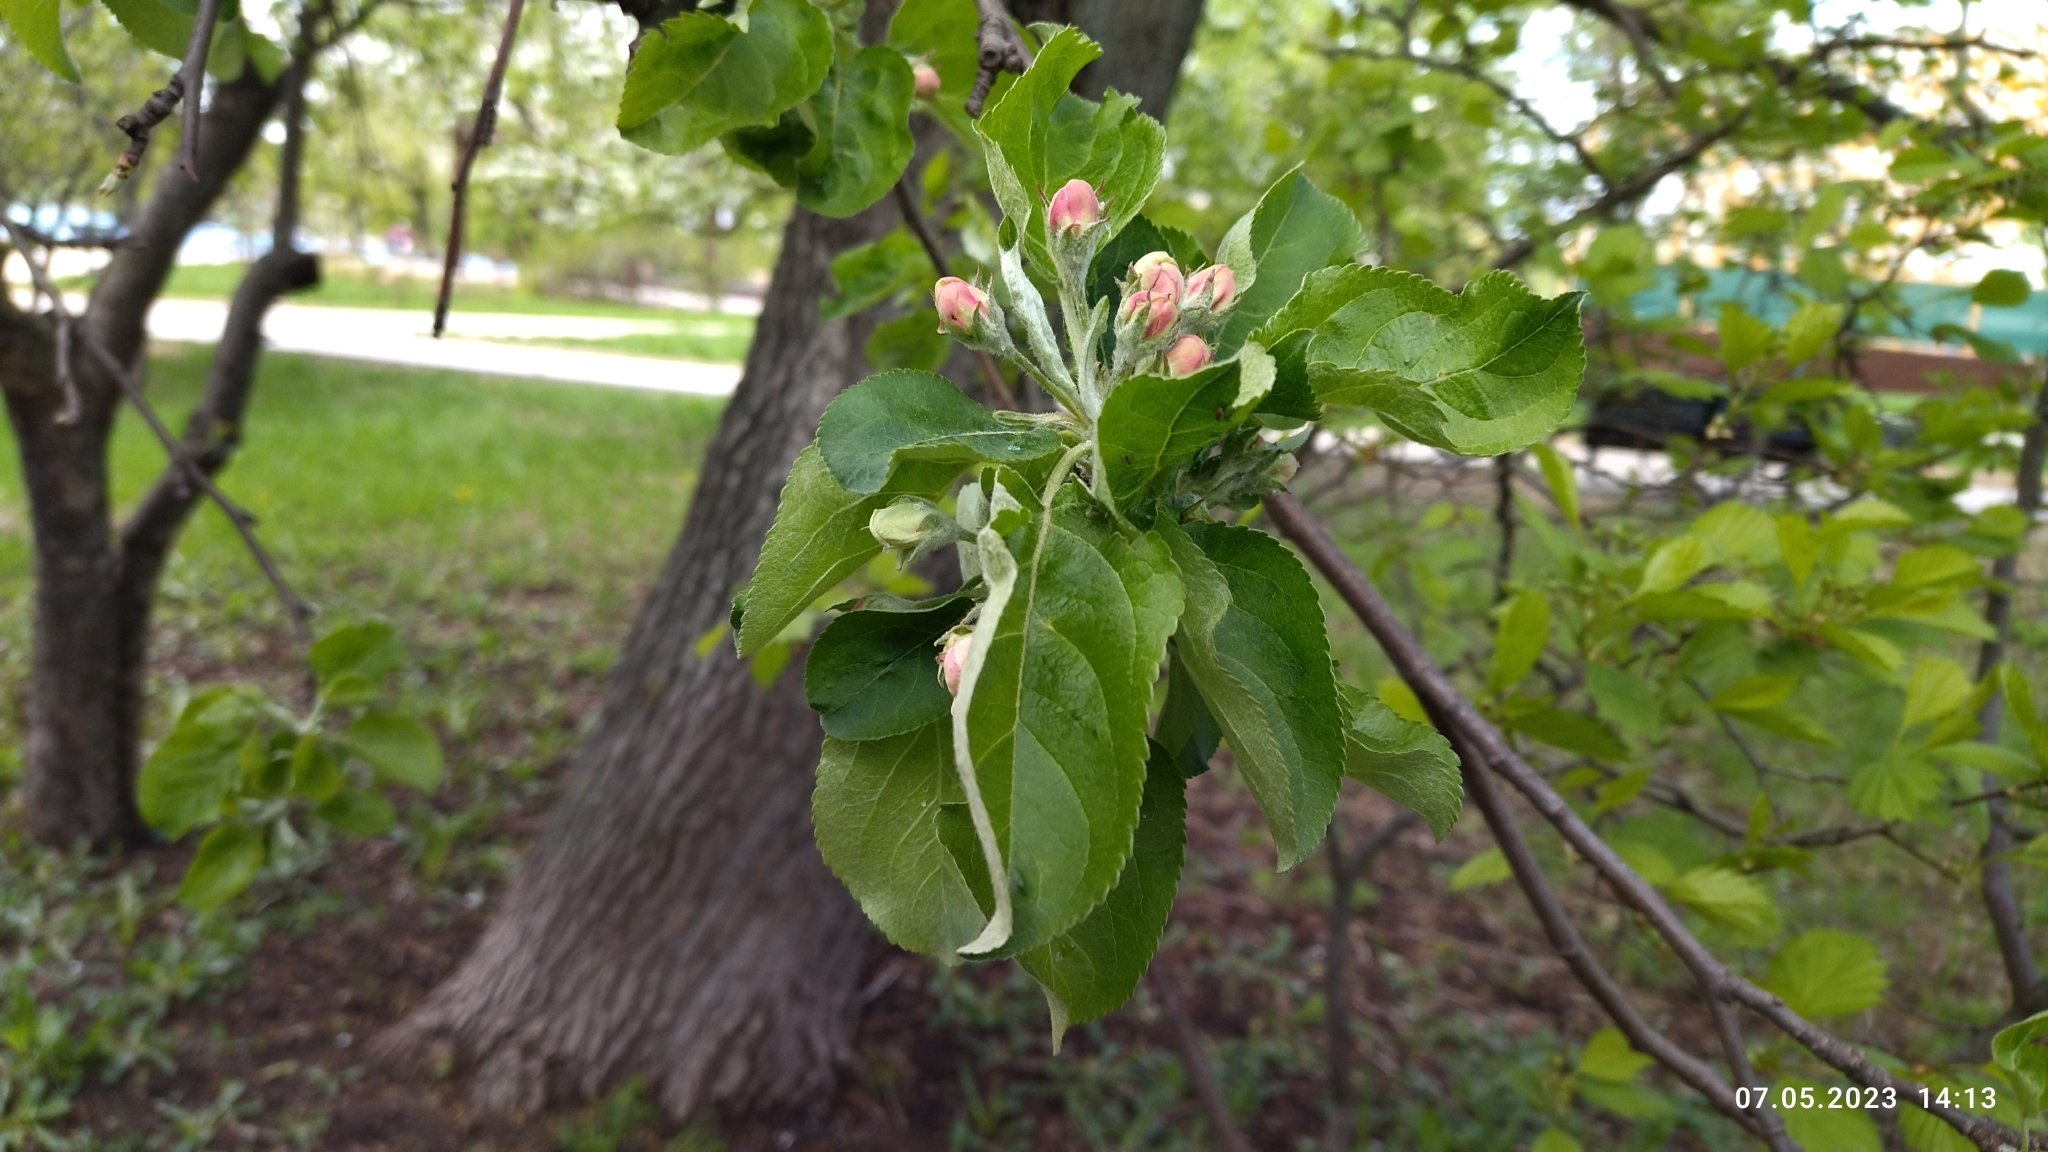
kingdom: Plantae
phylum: Tracheophyta
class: Magnoliopsida
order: Rosales
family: Rosaceae
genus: Malus
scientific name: Malus domestica
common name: Apple
